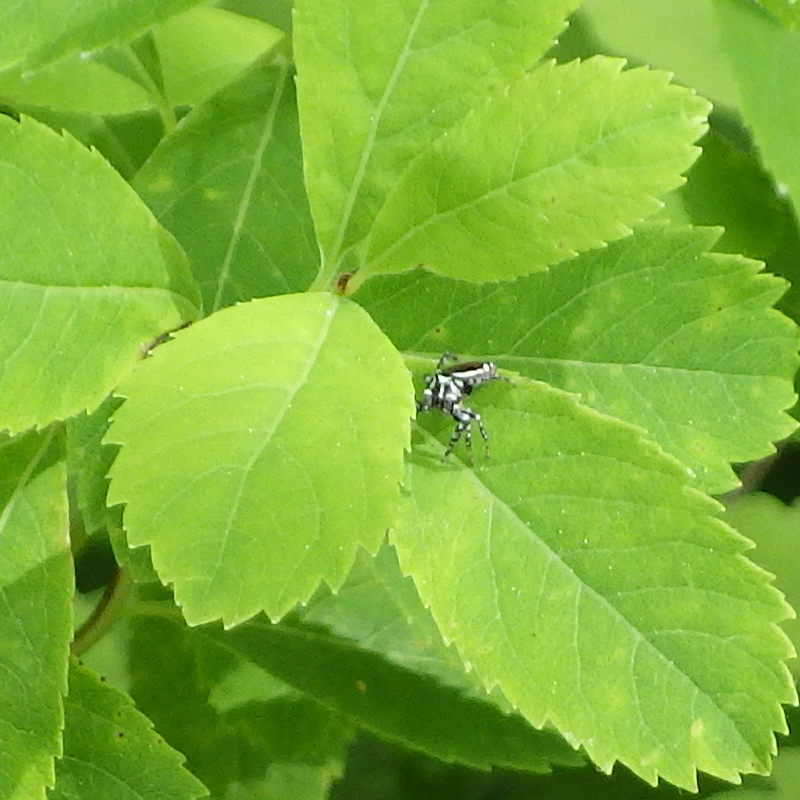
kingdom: Animalia
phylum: Arthropoda
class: Arachnida
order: Araneae
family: Salticidae
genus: Pelegrina
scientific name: Pelegrina proterva
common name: Common white-cheeked jumping spider
